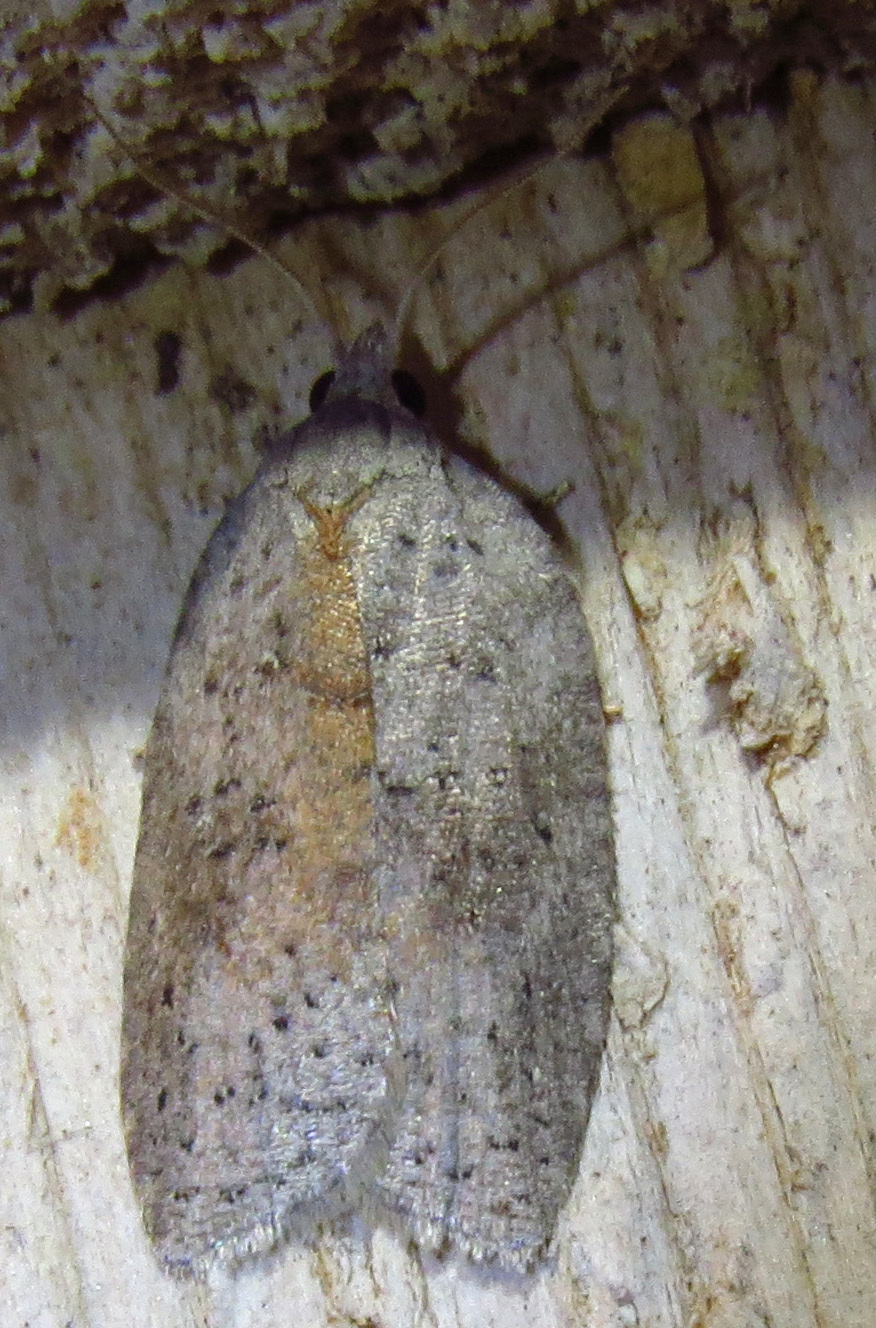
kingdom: Animalia
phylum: Arthropoda
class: Insecta
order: Lepidoptera
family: Tortricidae
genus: Amorbia
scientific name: Amorbia humerosana
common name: White-lined leafroller moth
